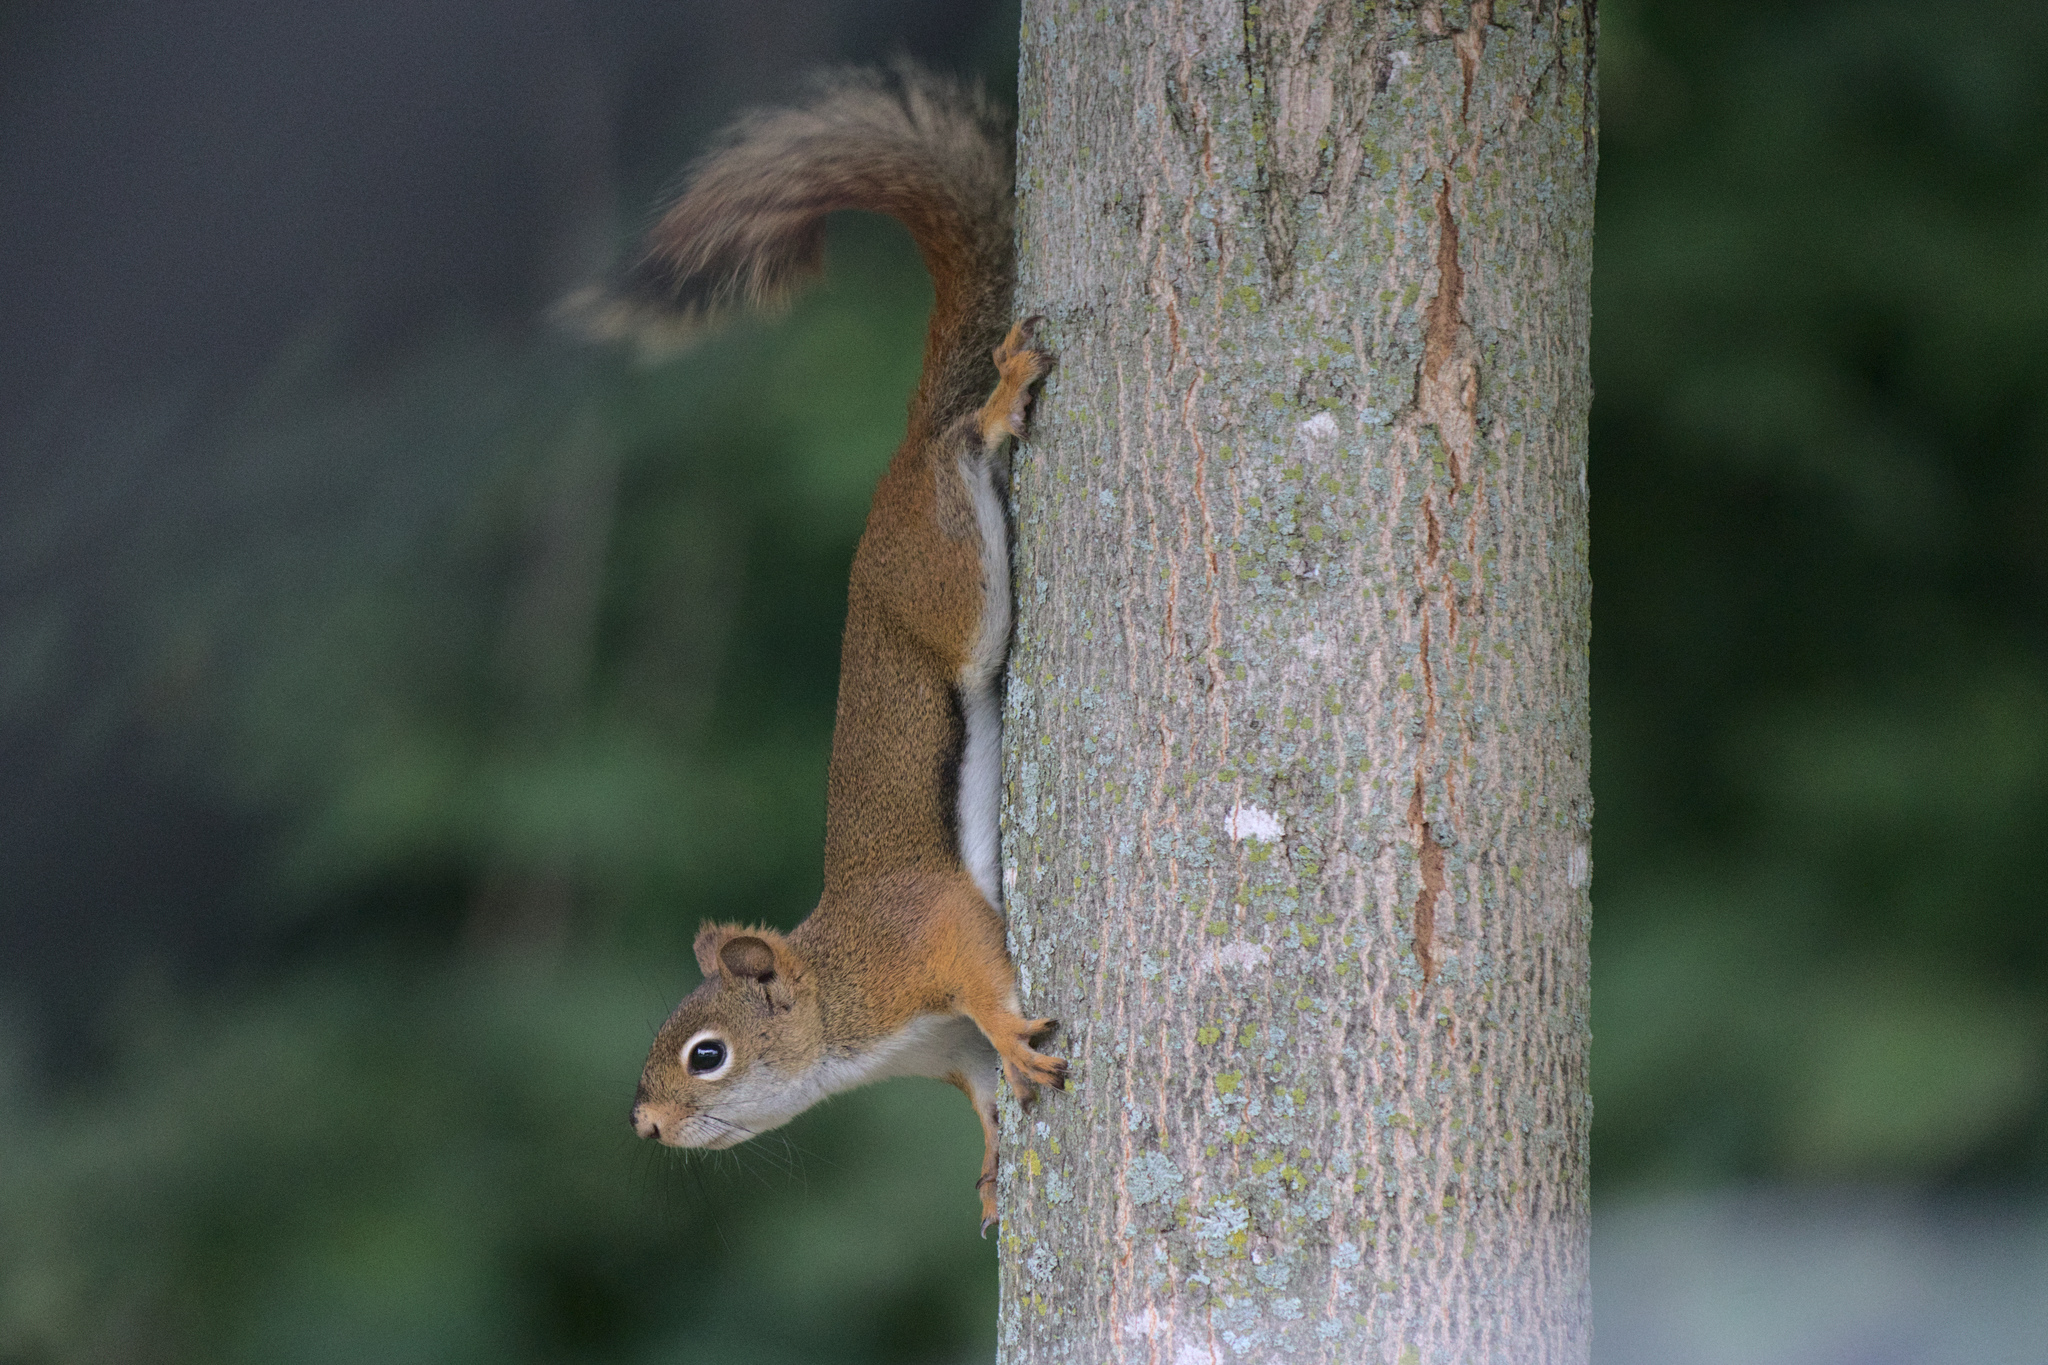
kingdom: Animalia
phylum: Chordata
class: Mammalia
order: Rodentia
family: Sciuridae
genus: Tamiasciurus
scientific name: Tamiasciurus hudsonicus
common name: Red squirrel
